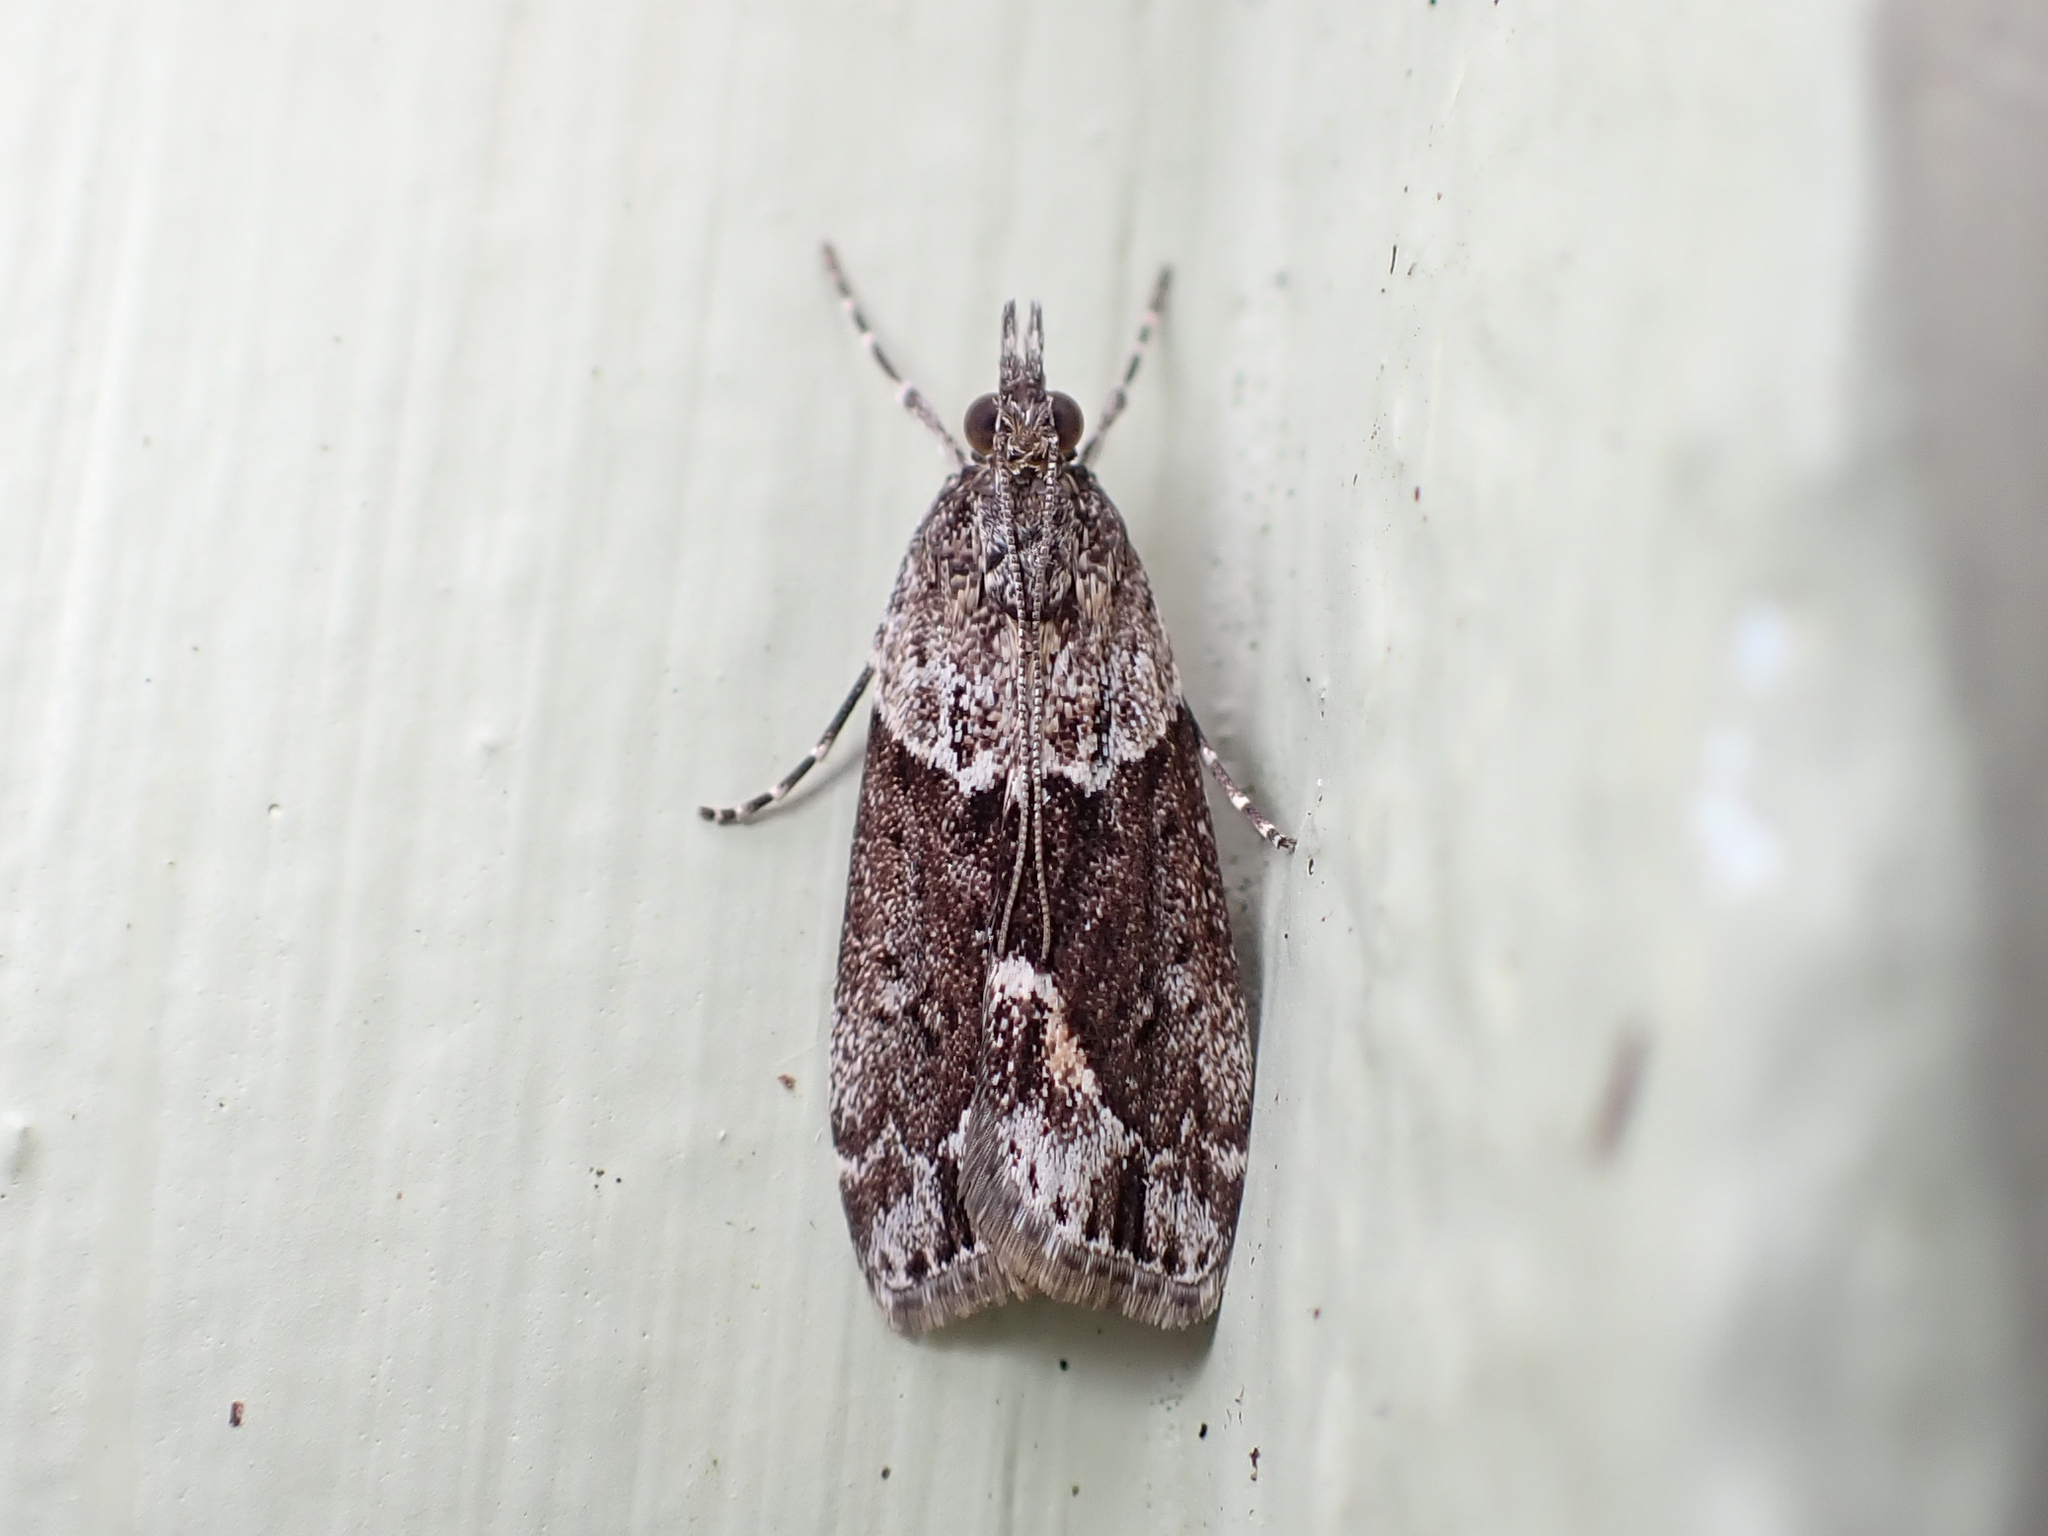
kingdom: Animalia
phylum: Arthropoda
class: Insecta
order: Lepidoptera
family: Crambidae
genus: Eudonia
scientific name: Eudonia submarginalis
